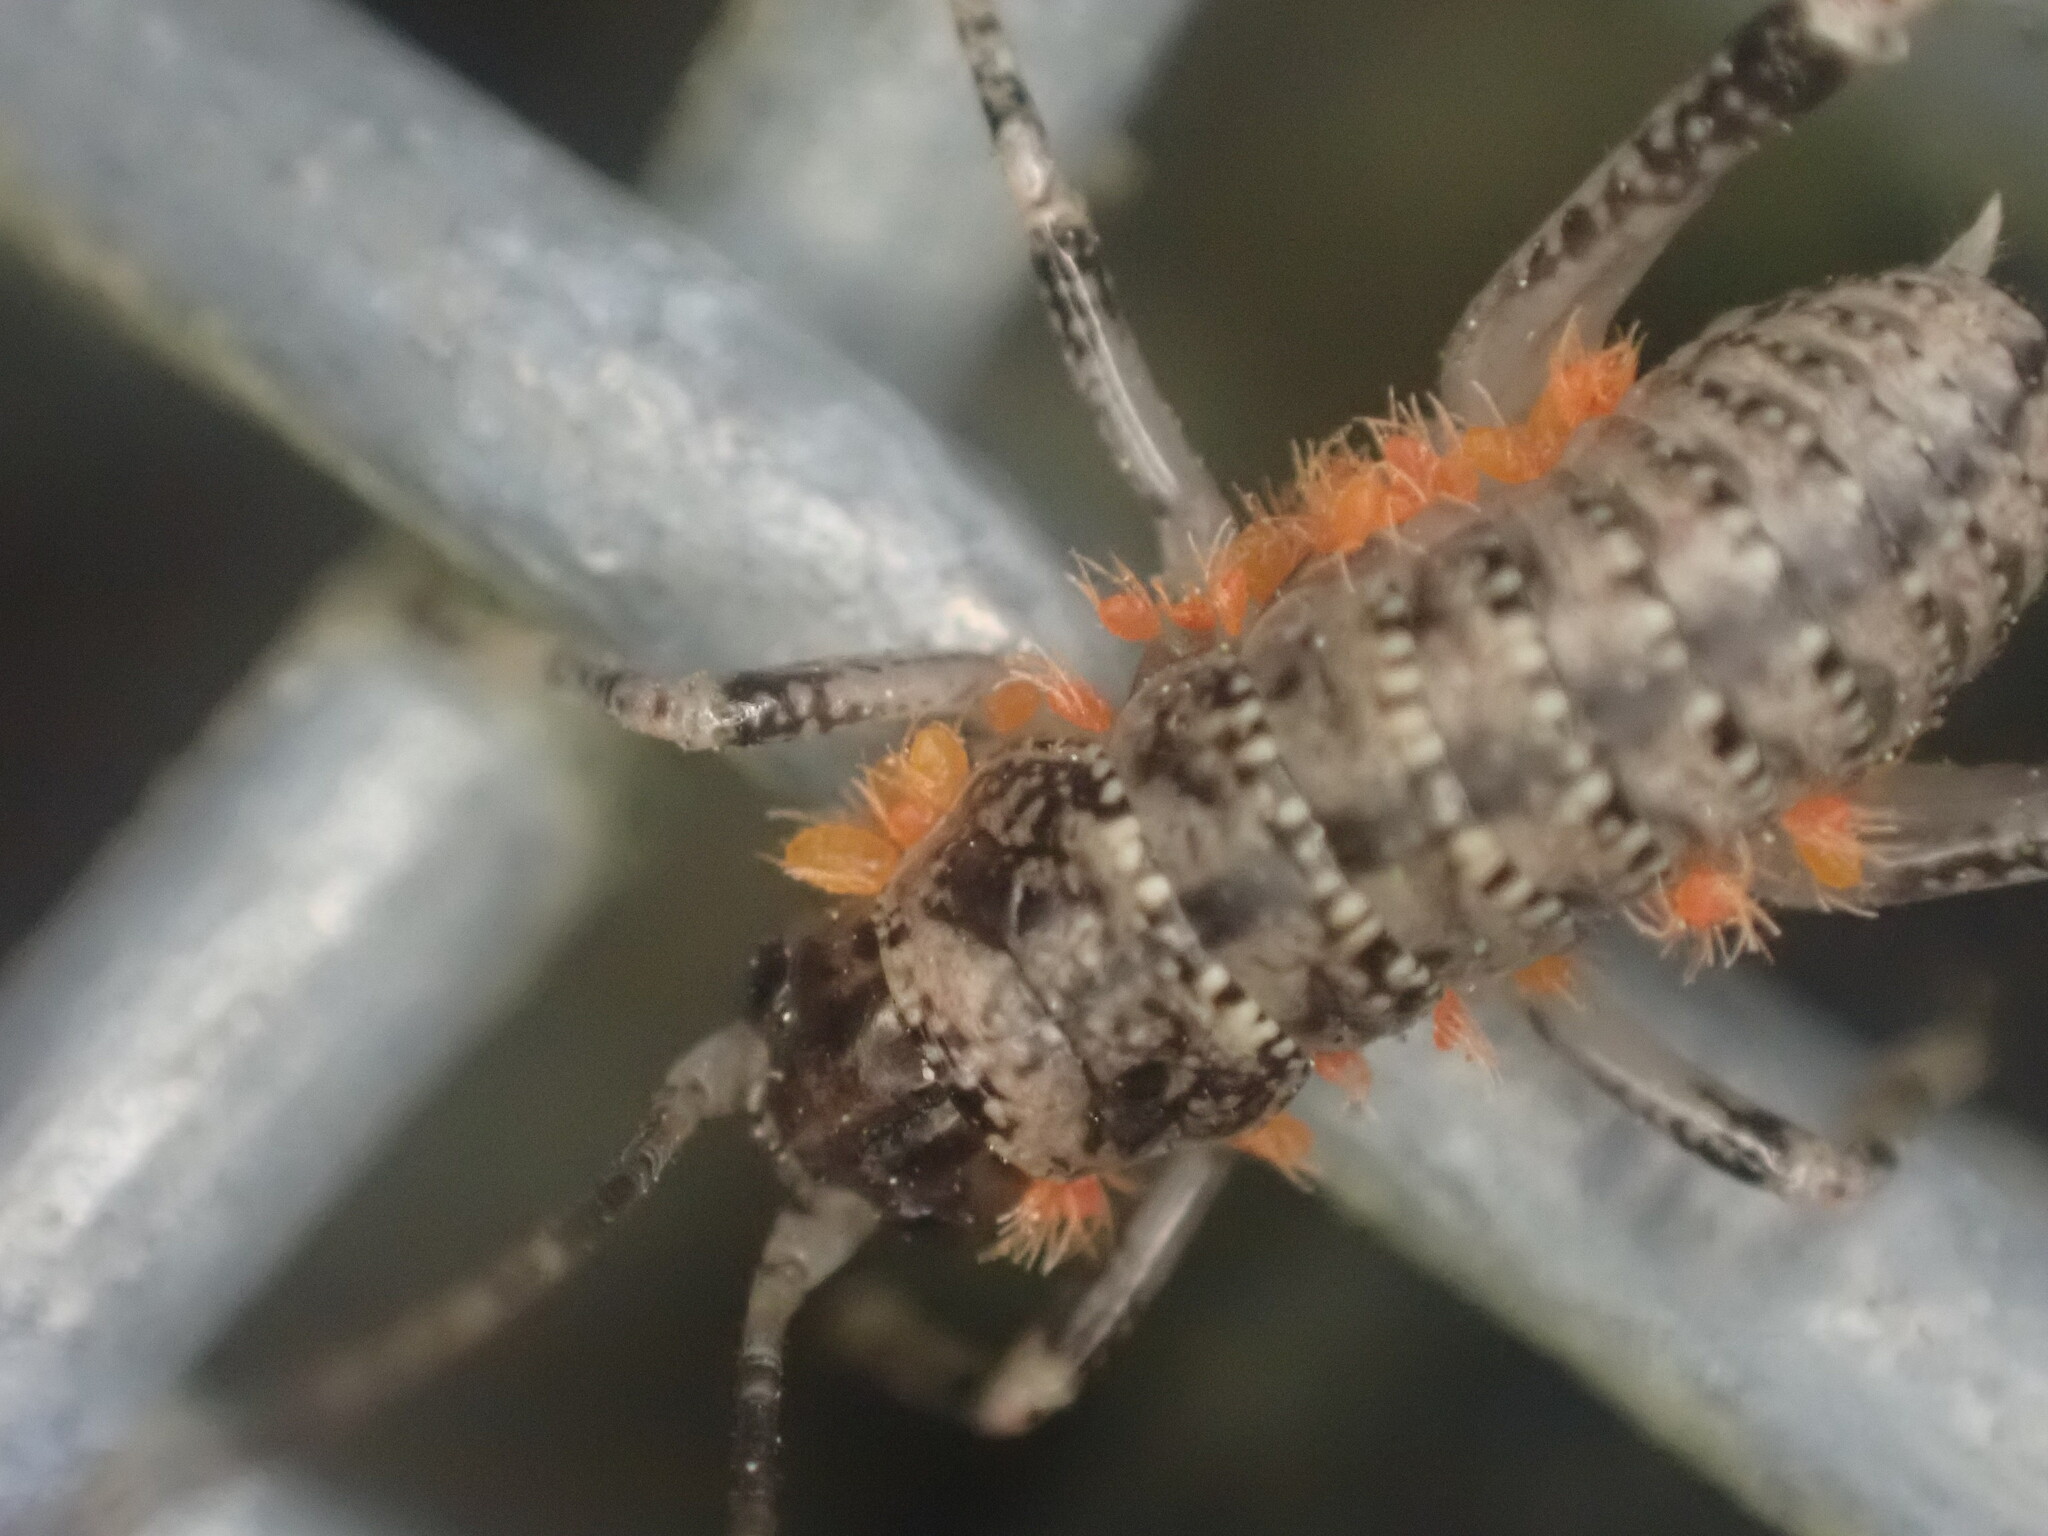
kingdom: Animalia
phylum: Arthropoda
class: Insecta
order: Orthoptera
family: Anostostomatidae
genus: Deinacrida
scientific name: Deinacrida rugosa
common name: Stephens island weta
